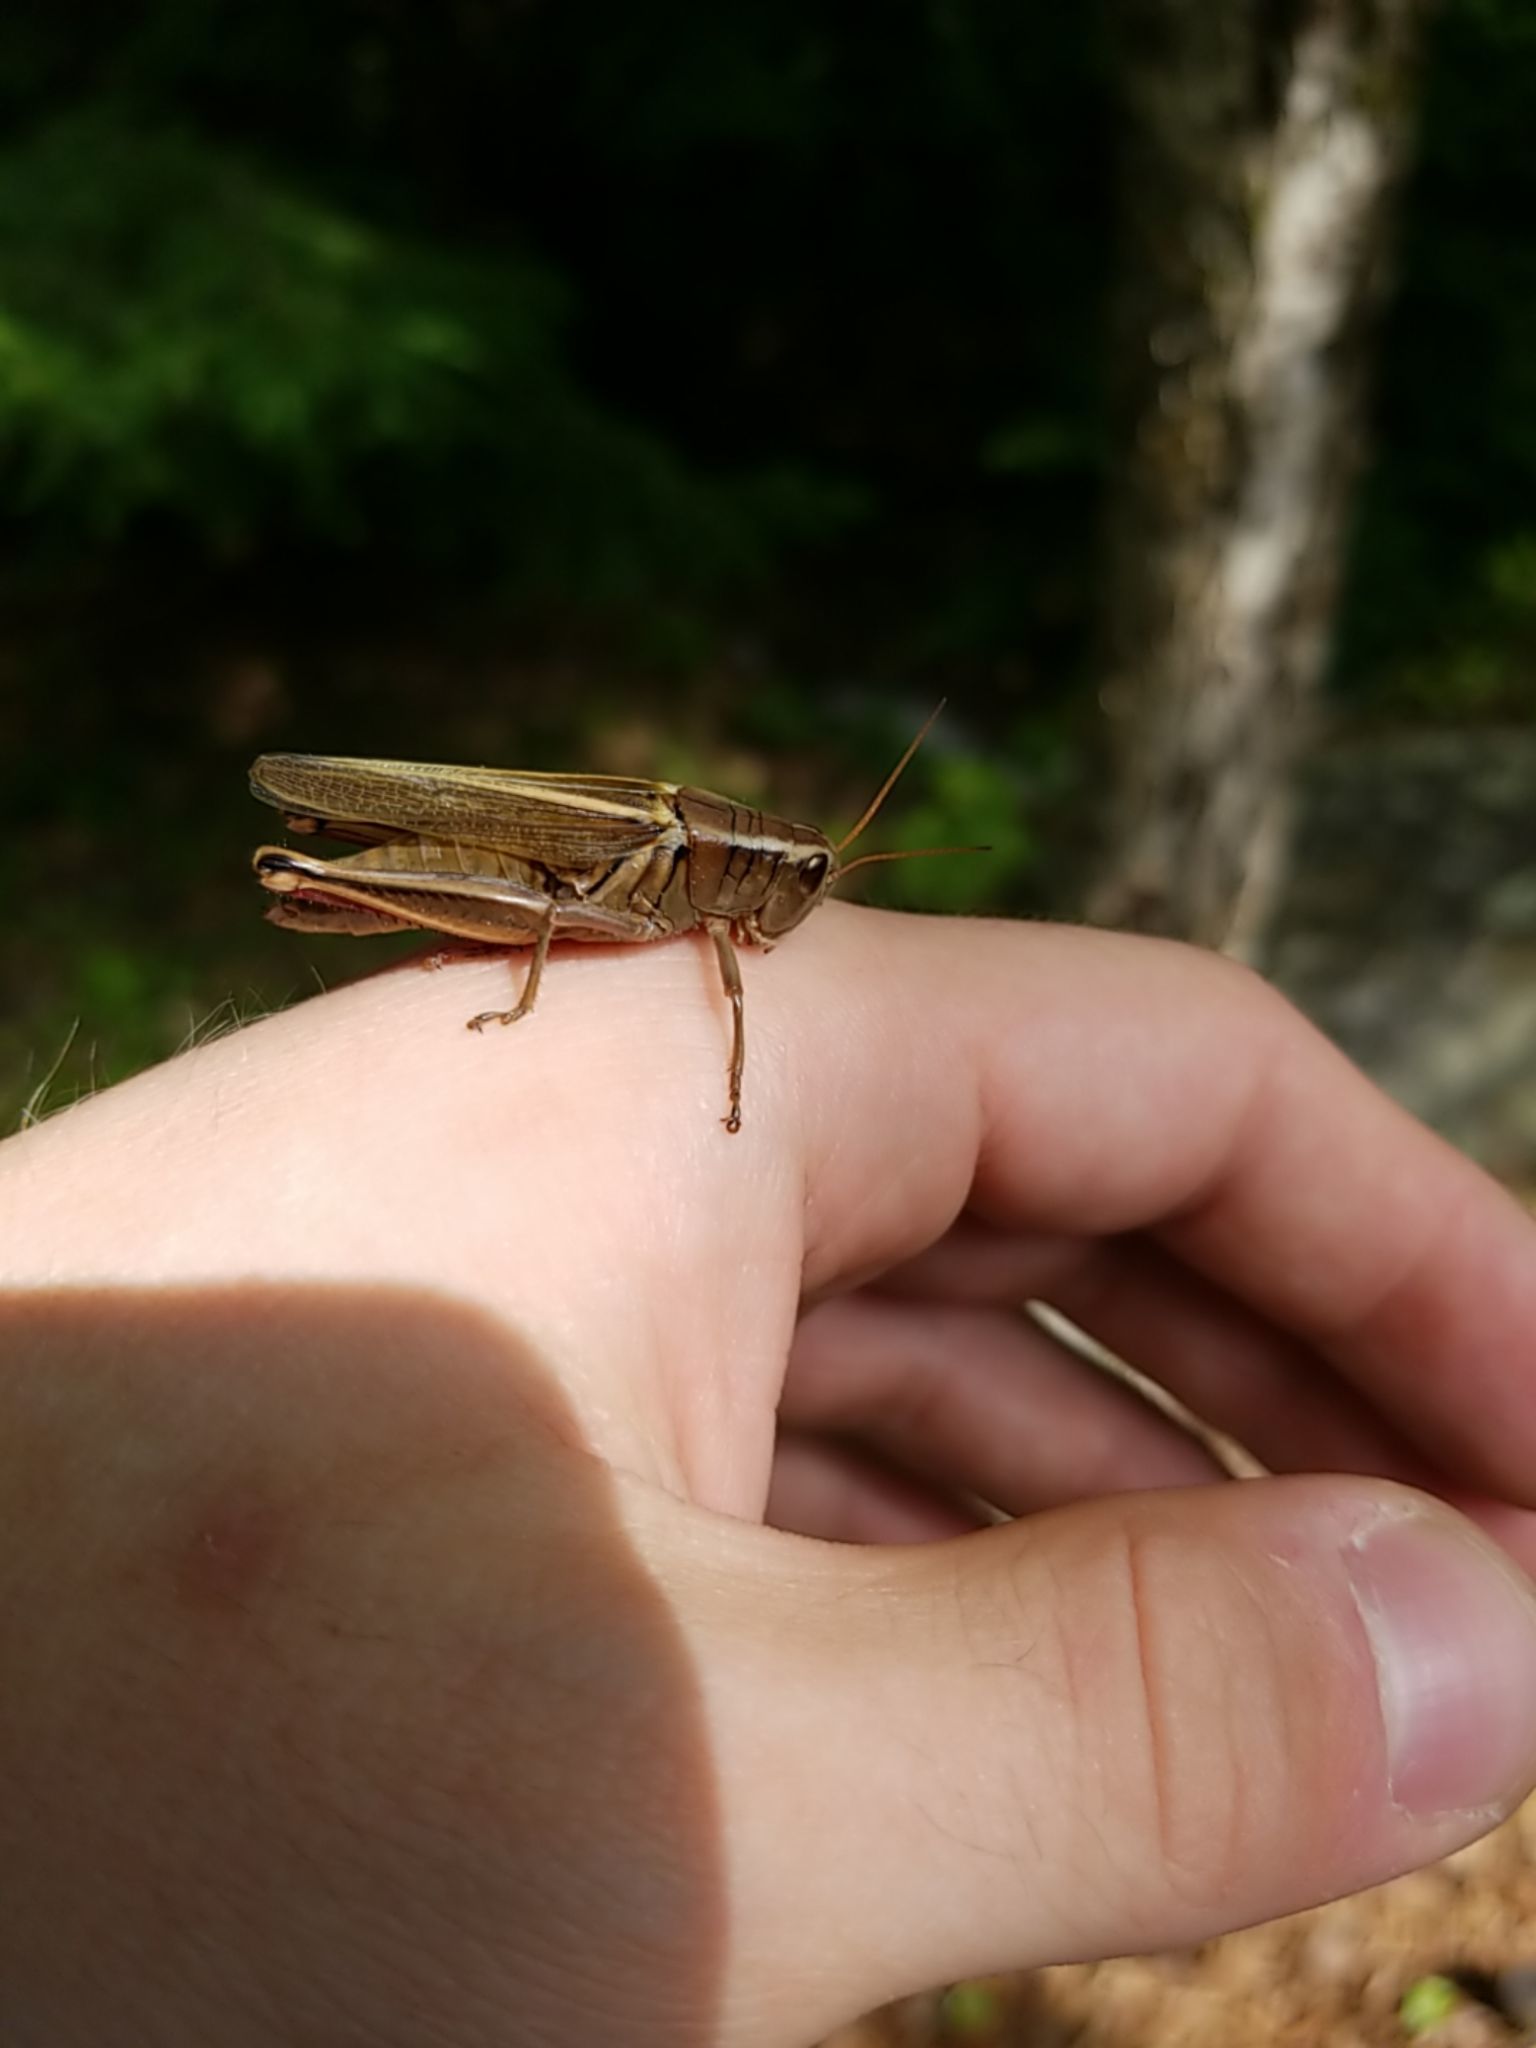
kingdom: Animalia
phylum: Arthropoda
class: Insecta
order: Orthoptera
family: Acrididae
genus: Melanoplus
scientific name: Melanoplus bivittatus
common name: Two-striped grasshopper
